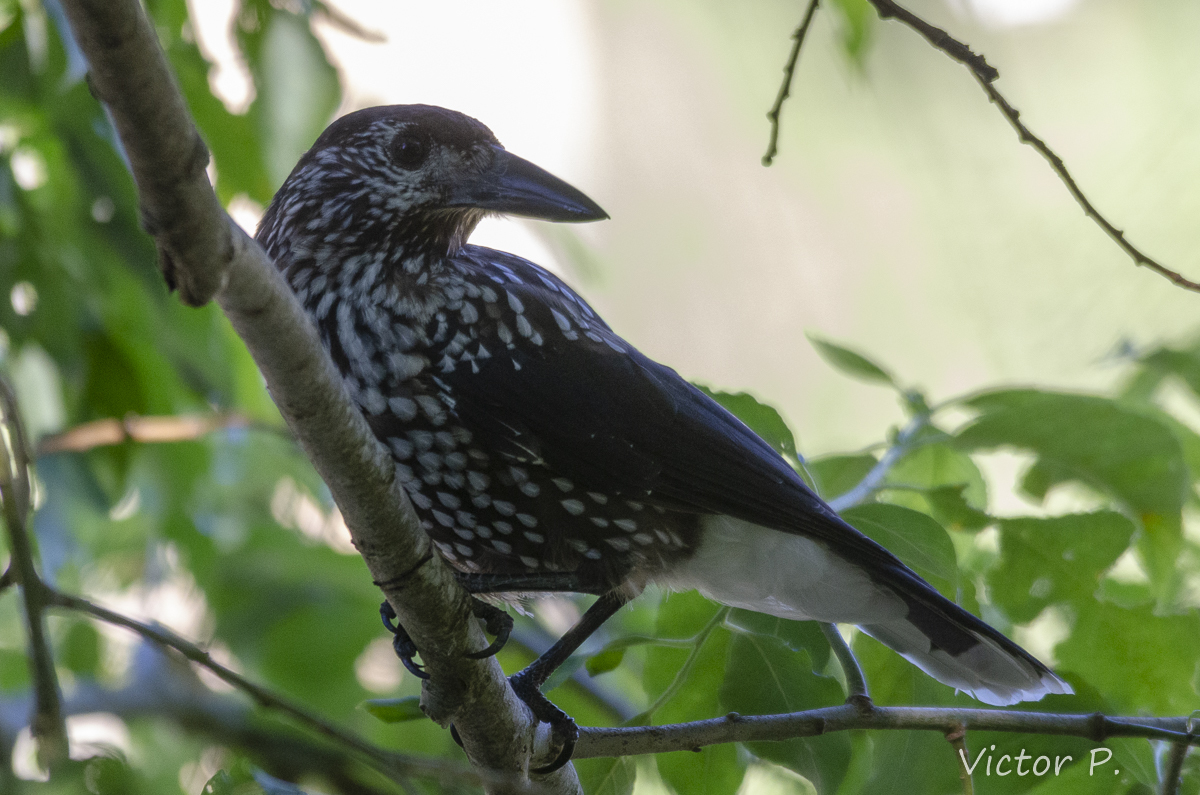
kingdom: Animalia
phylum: Chordata
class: Aves
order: Passeriformes
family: Corvidae
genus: Nucifraga
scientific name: Nucifraga caryocatactes
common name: Spotted nutcracker
